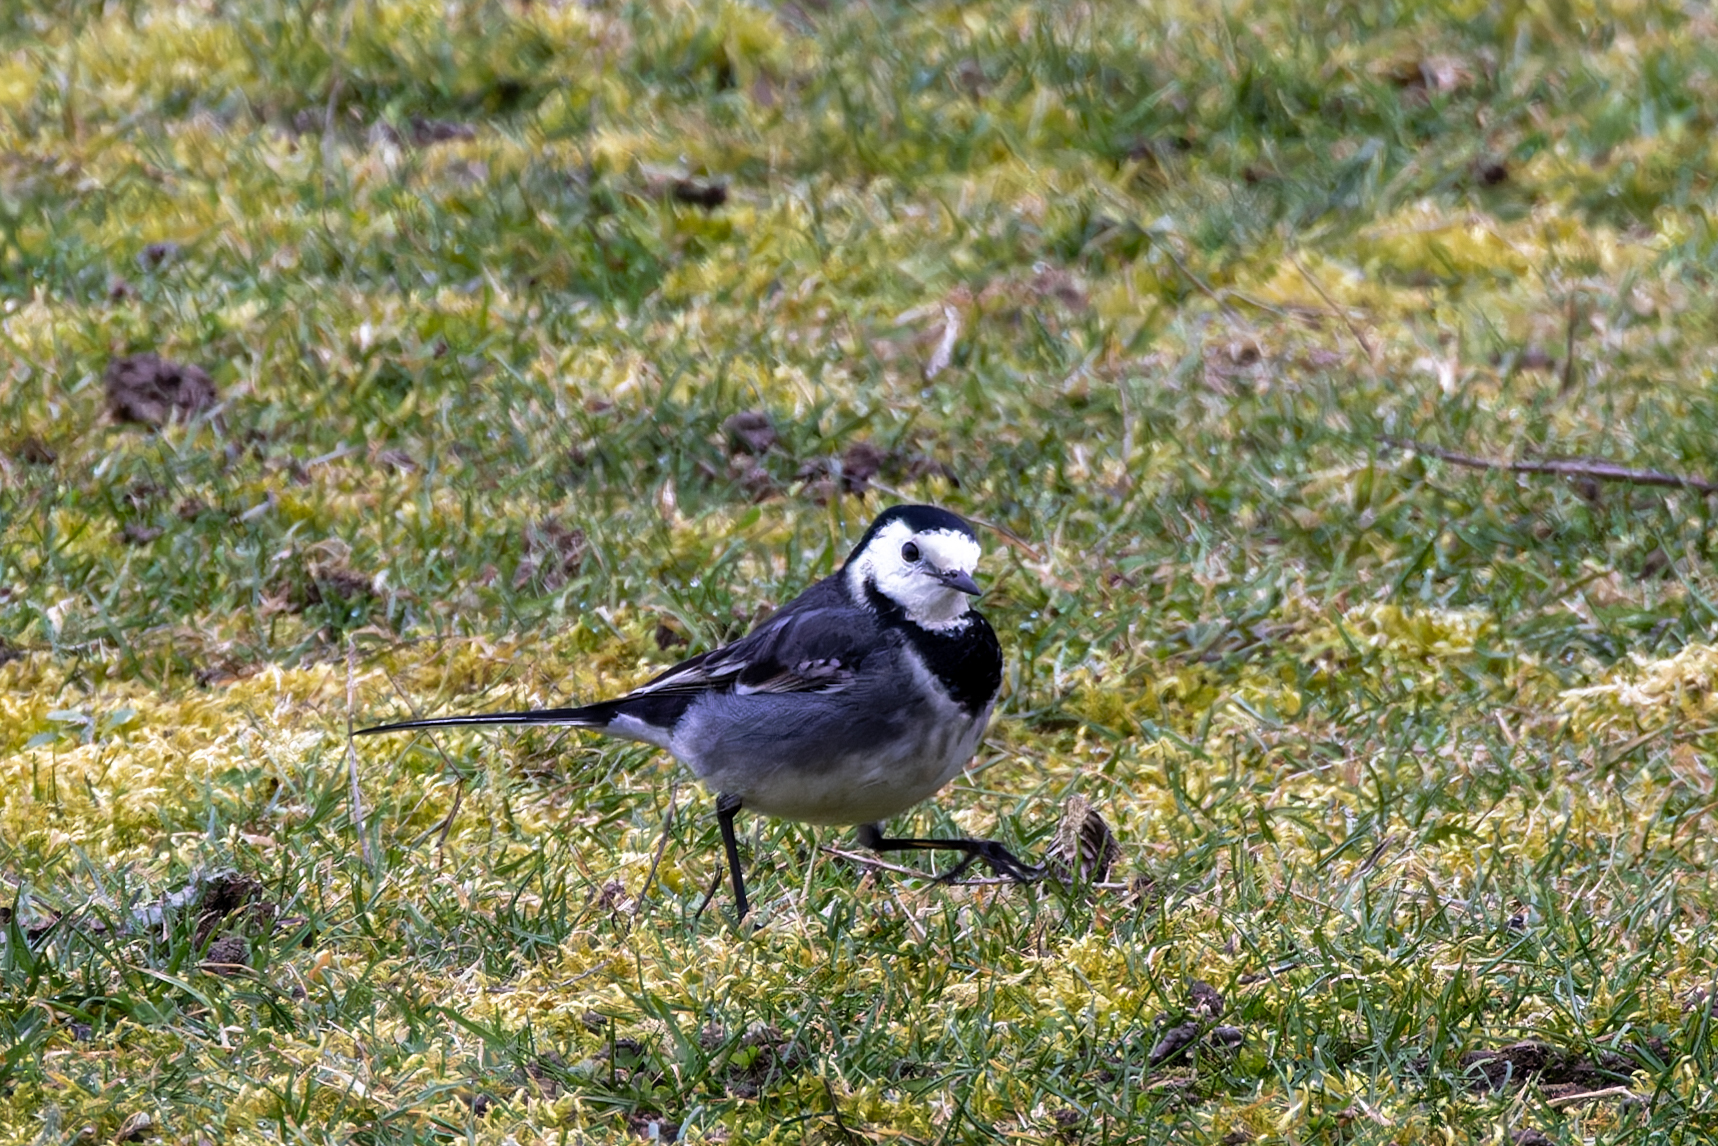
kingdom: Animalia
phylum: Chordata
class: Aves
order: Passeriformes
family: Motacillidae
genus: Motacilla
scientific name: Motacilla alba
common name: White wagtail
